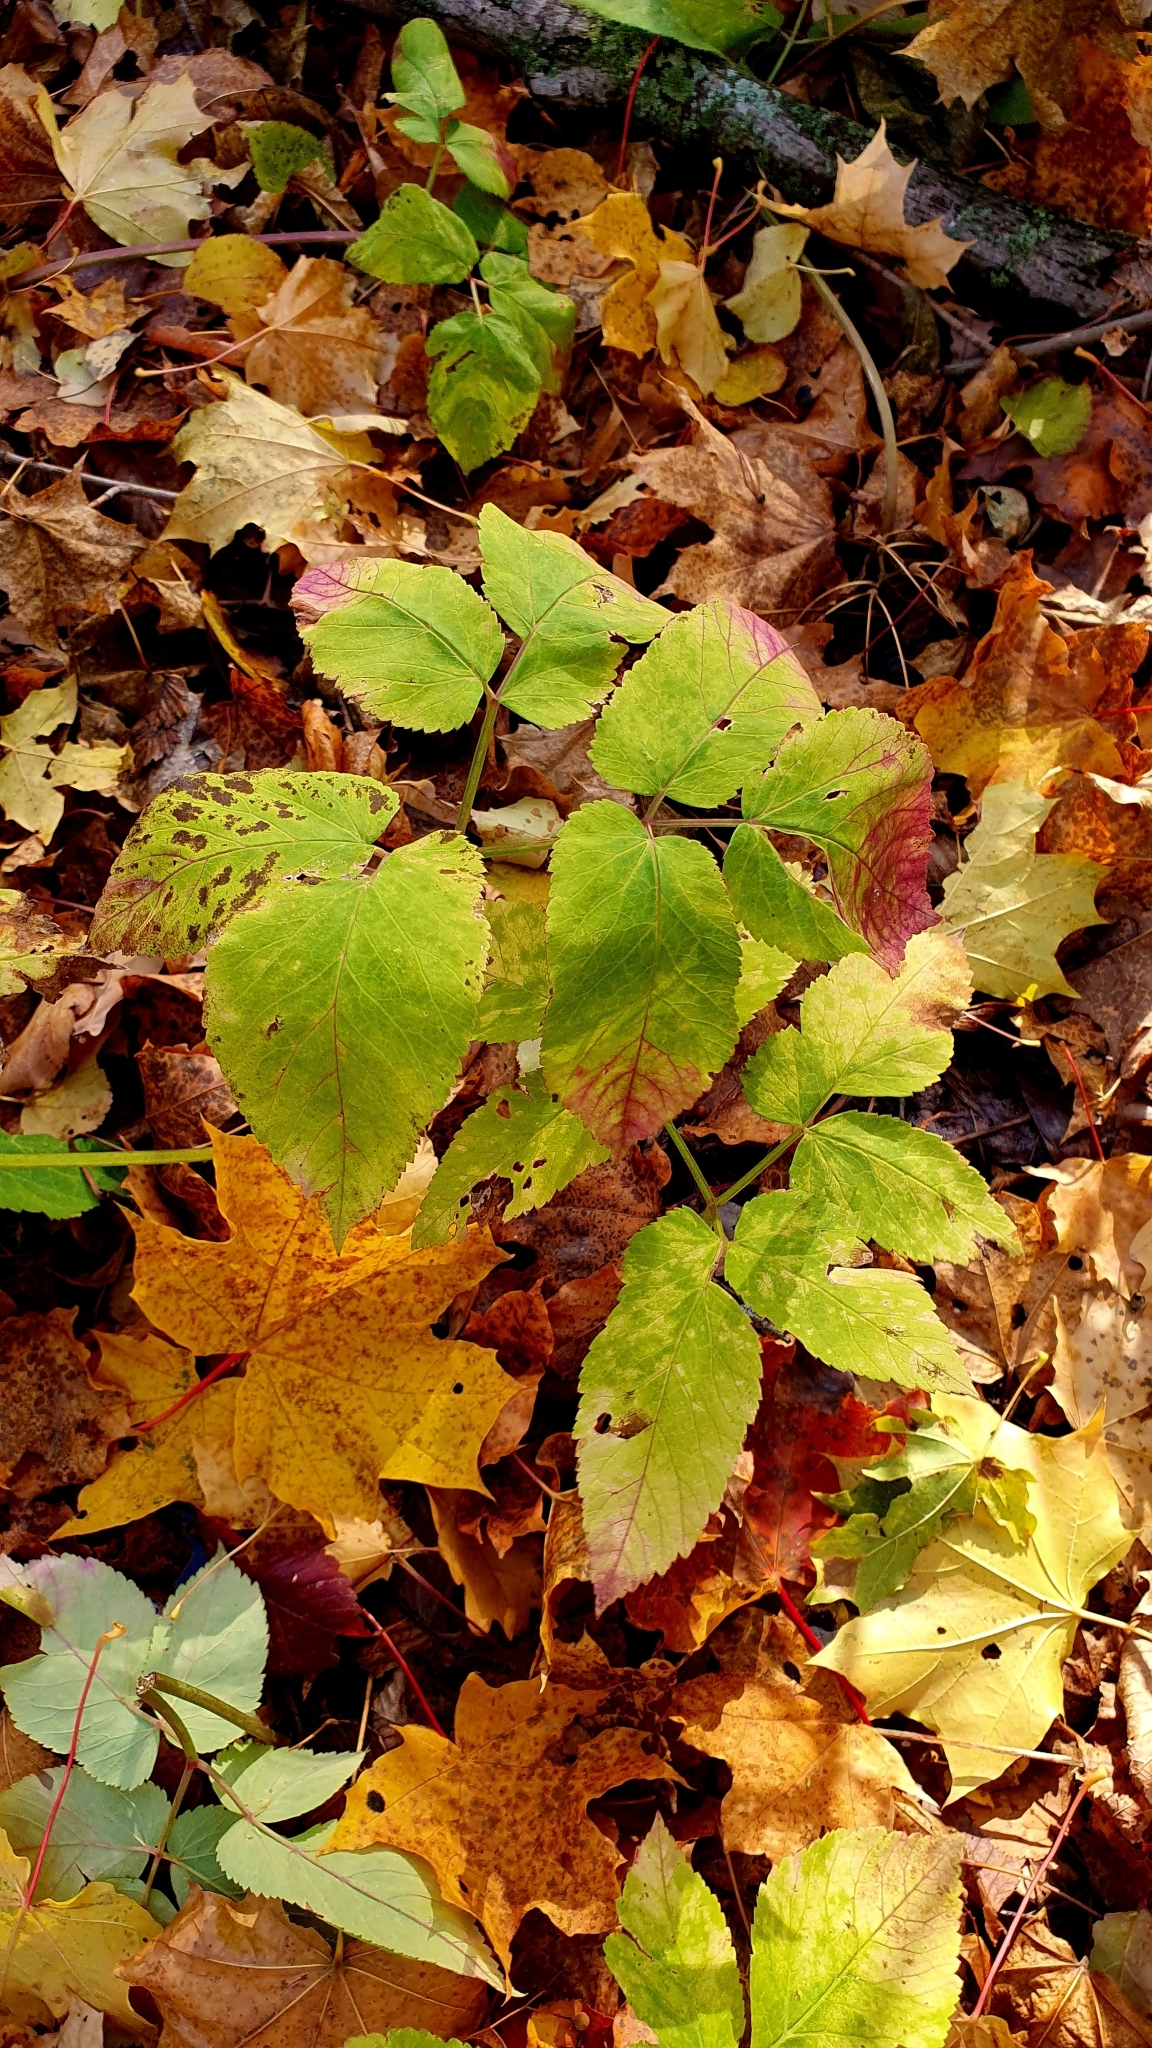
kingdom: Plantae
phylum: Tracheophyta
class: Magnoliopsida
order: Apiales
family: Apiaceae
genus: Aegopodium
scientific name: Aegopodium podagraria
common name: Ground-elder
